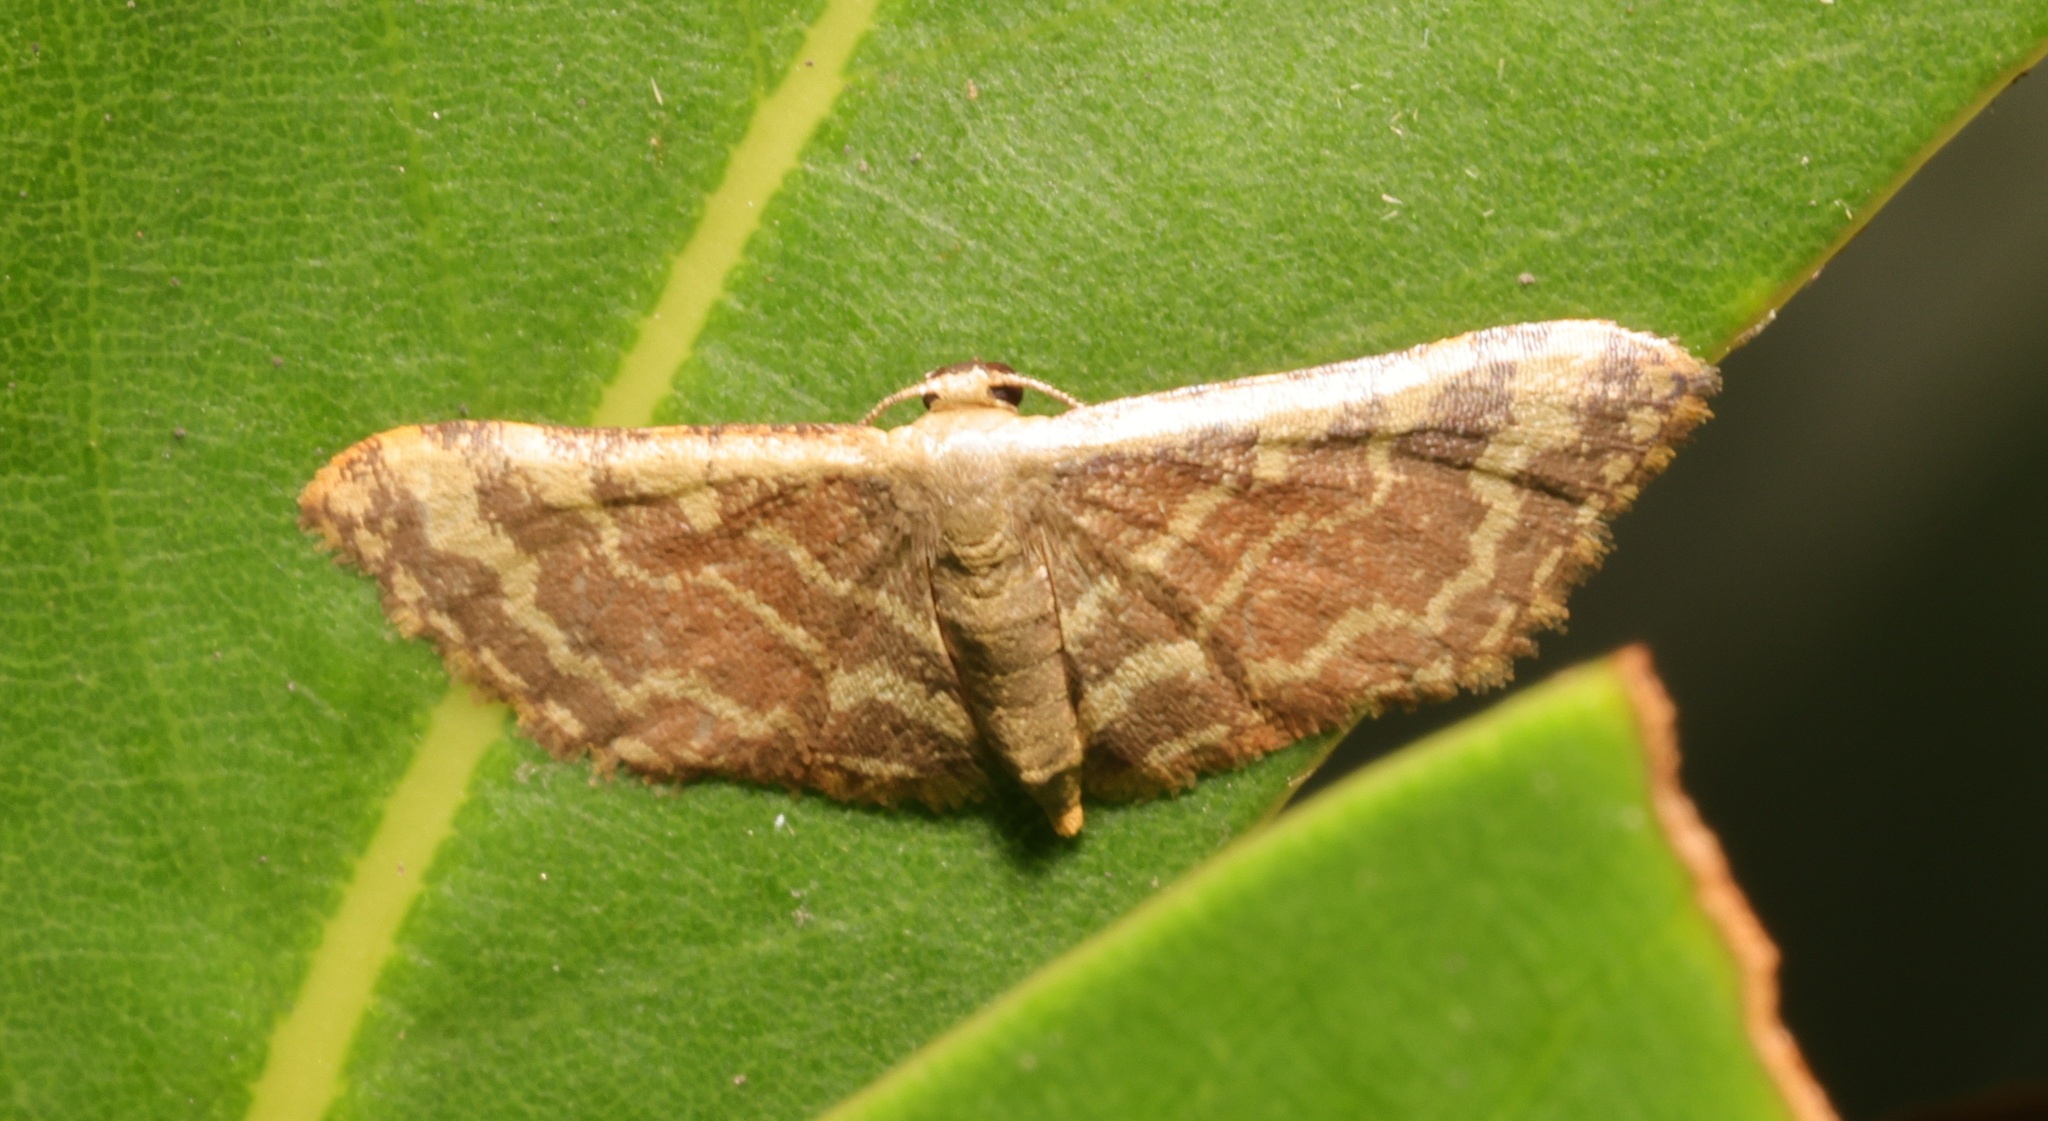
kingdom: Animalia
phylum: Arthropoda
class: Insecta
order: Lepidoptera
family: Geometridae
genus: Lophophleps
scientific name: Lophophleps purpurea
